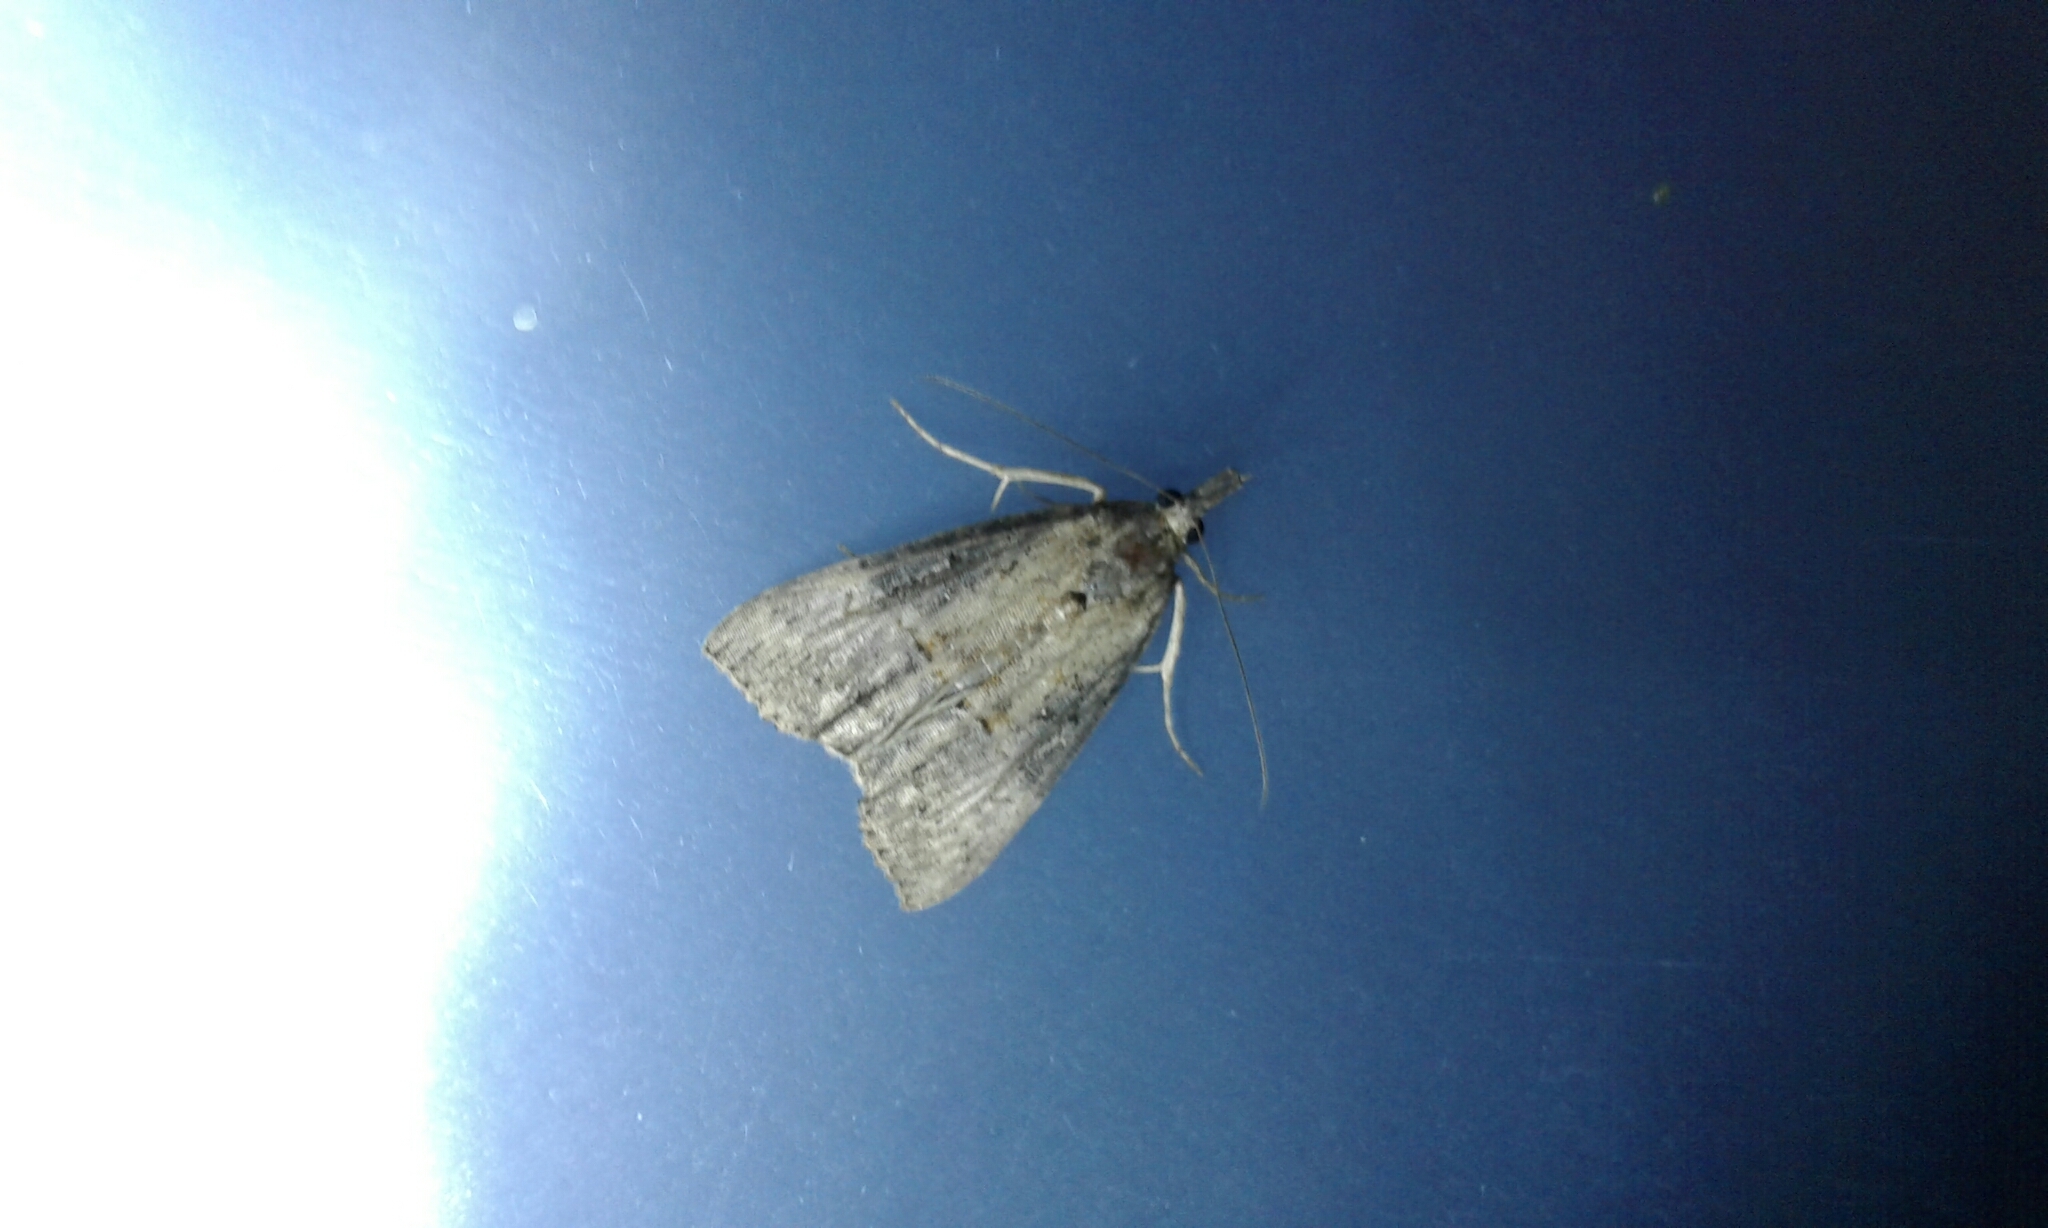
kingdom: Animalia
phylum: Arthropoda
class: Insecta
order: Lepidoptera
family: Erebidae
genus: Hypena
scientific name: Hypena scabra
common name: Green cloverworm
